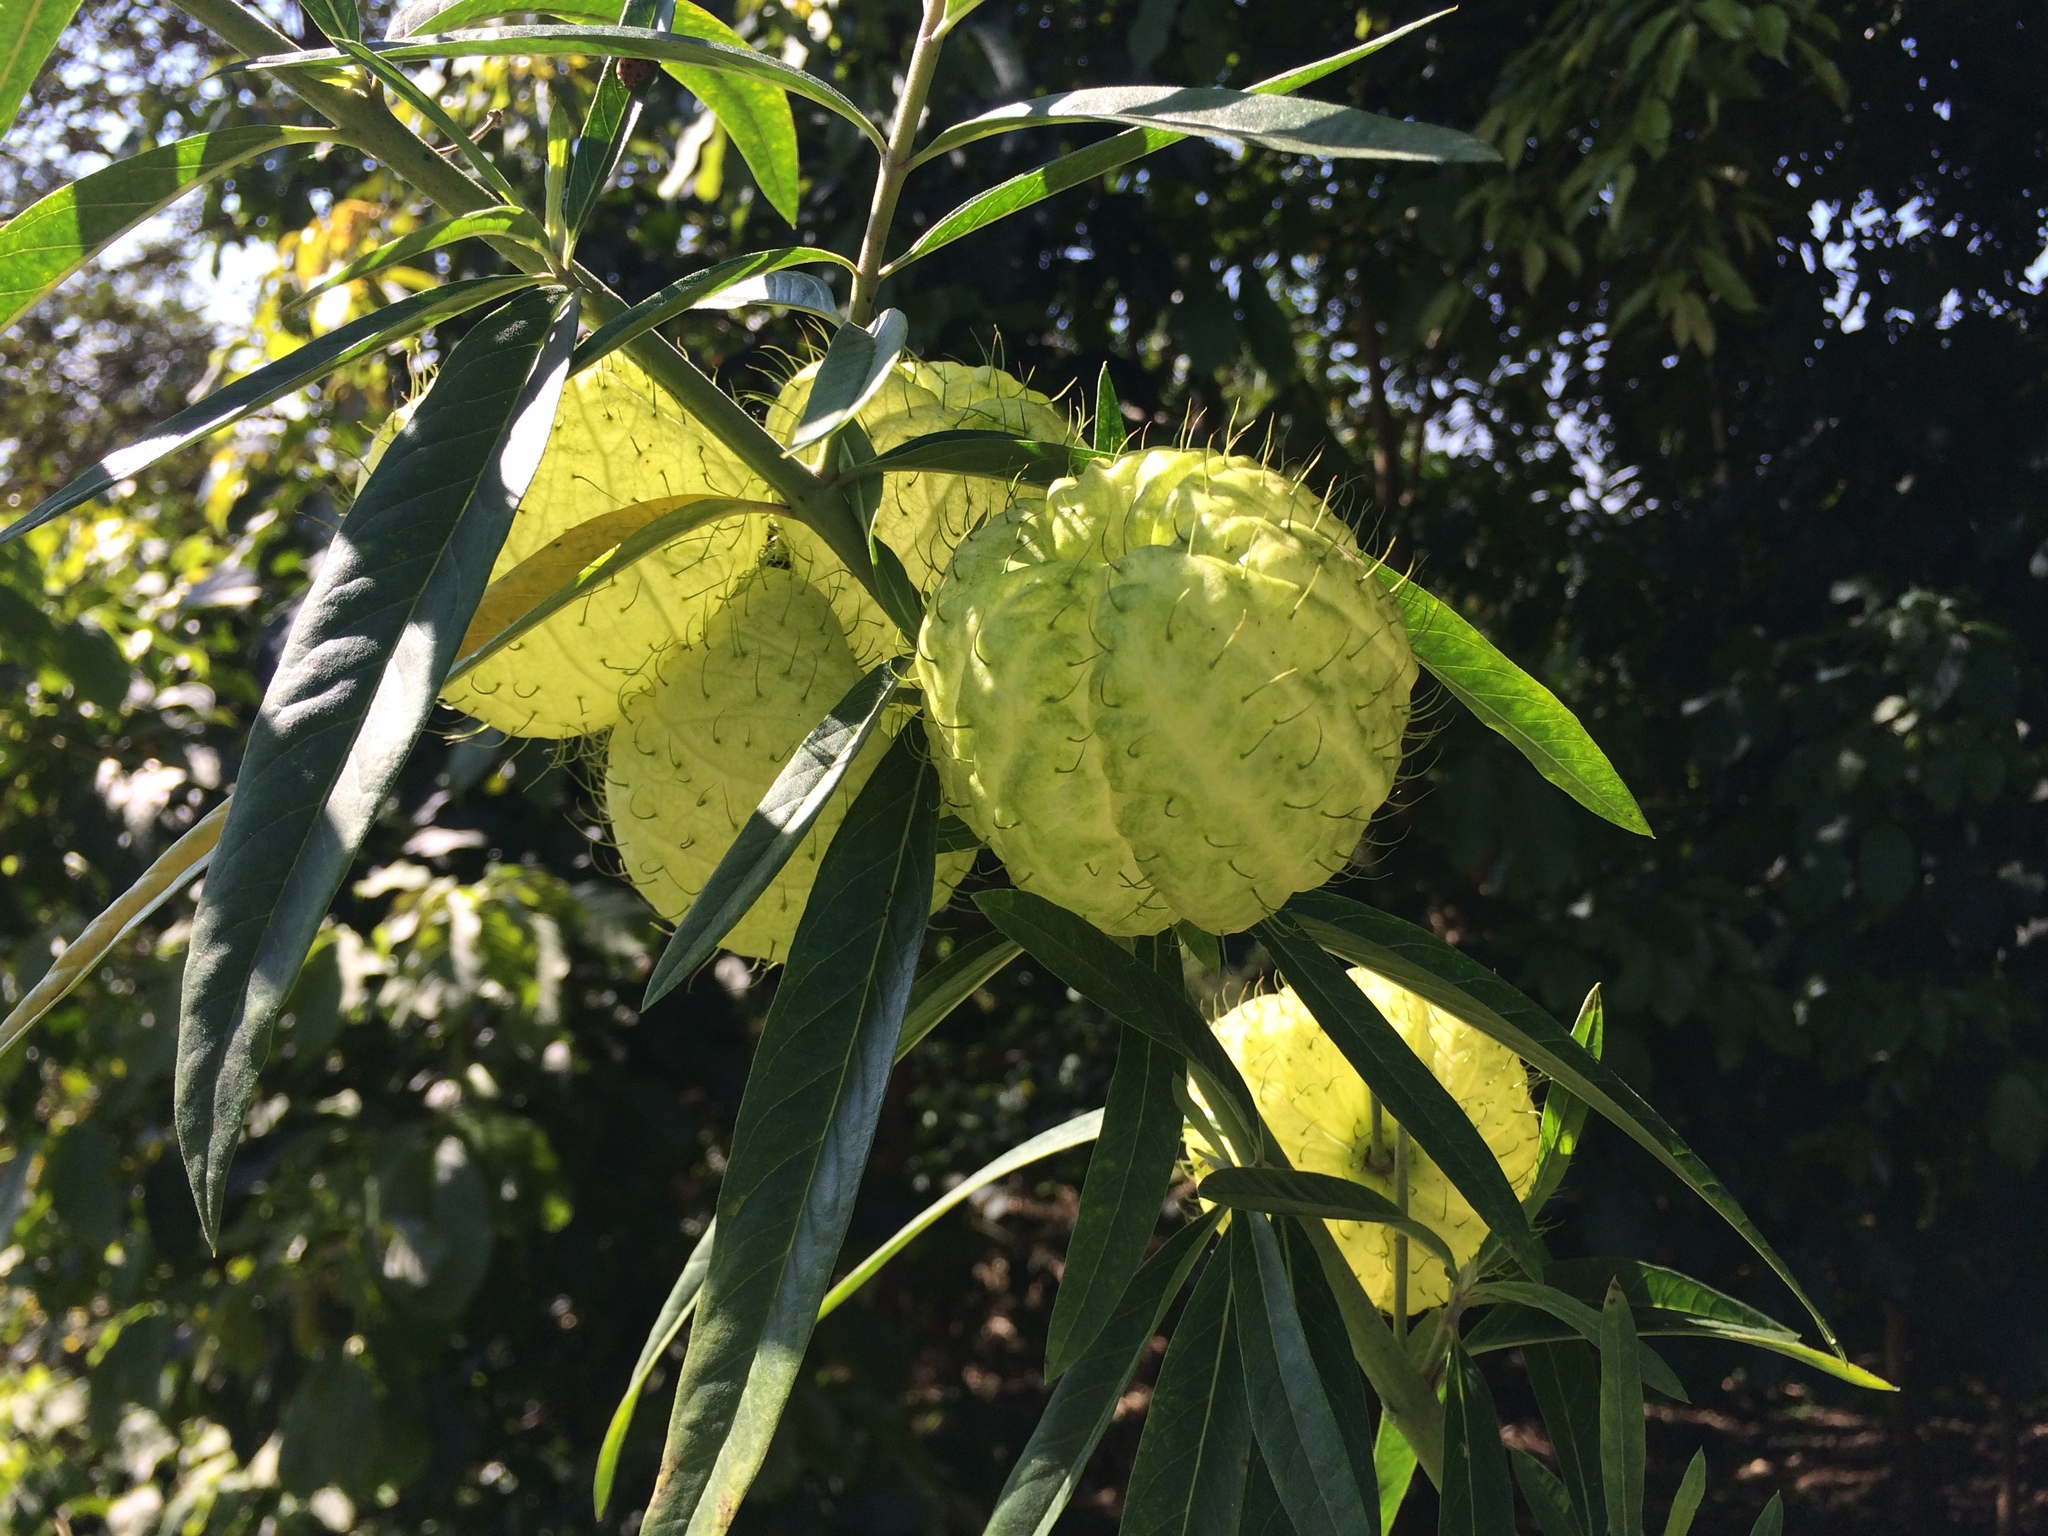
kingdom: Plantae
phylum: Tracheophyta
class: Magnoliopsida
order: Gentianales
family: Apocynaceae
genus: Gomphocarpus
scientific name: Gomphocarpus physocarpus
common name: Balloon cotton bush
